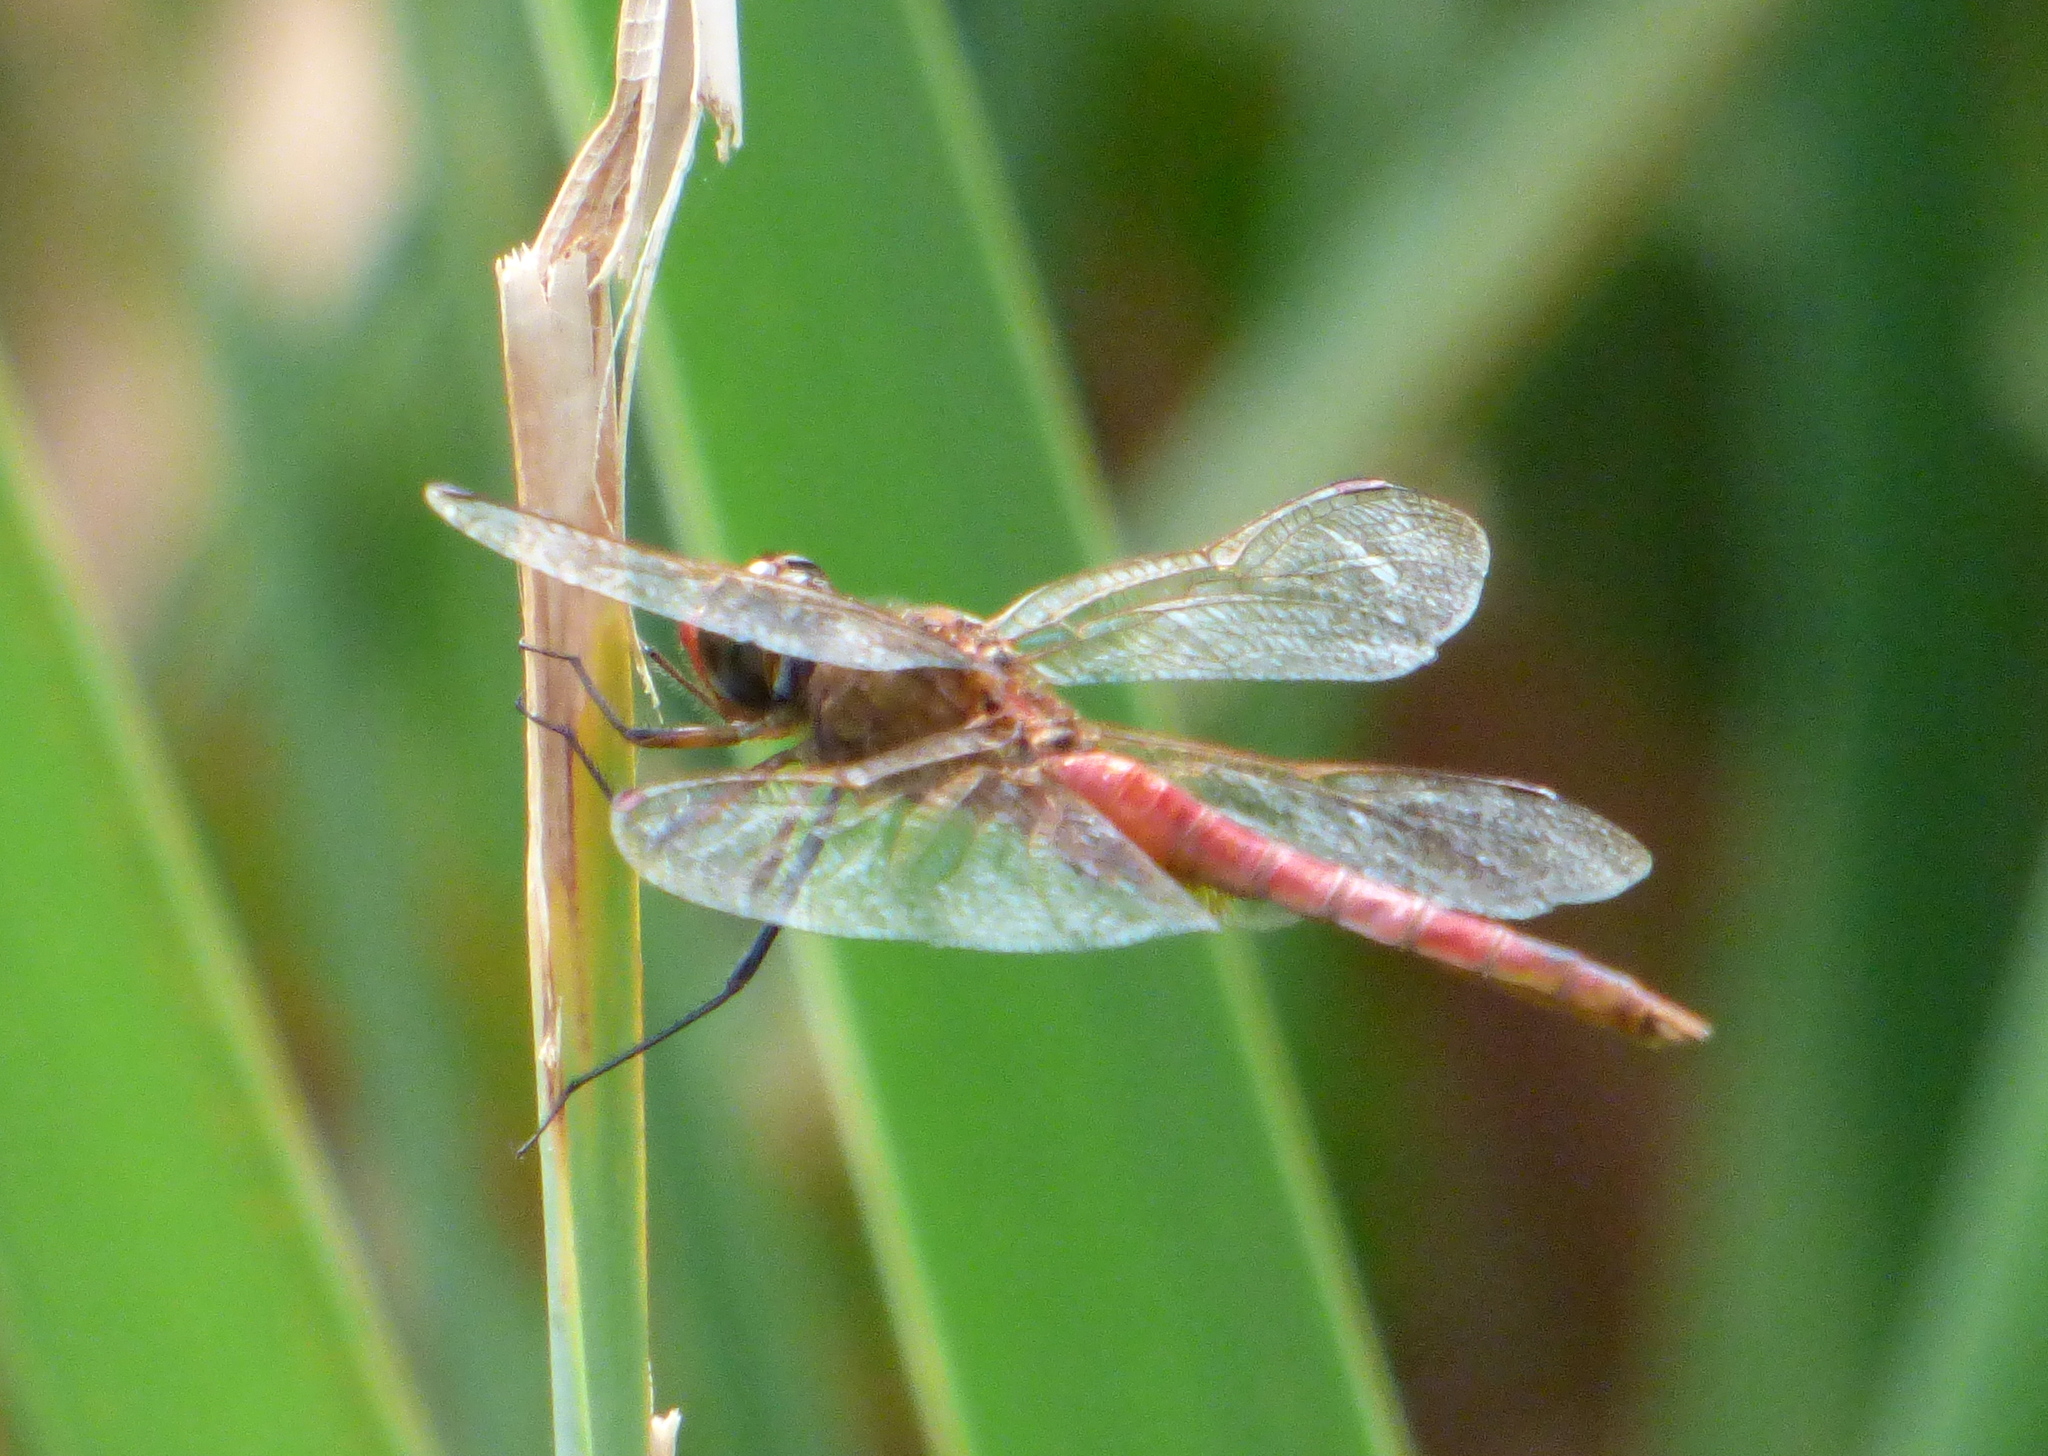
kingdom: Animalia
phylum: Arthropoda
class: Insecta
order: Odonata
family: Libellulidae
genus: Tauriphila
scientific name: Tauriphila risi
